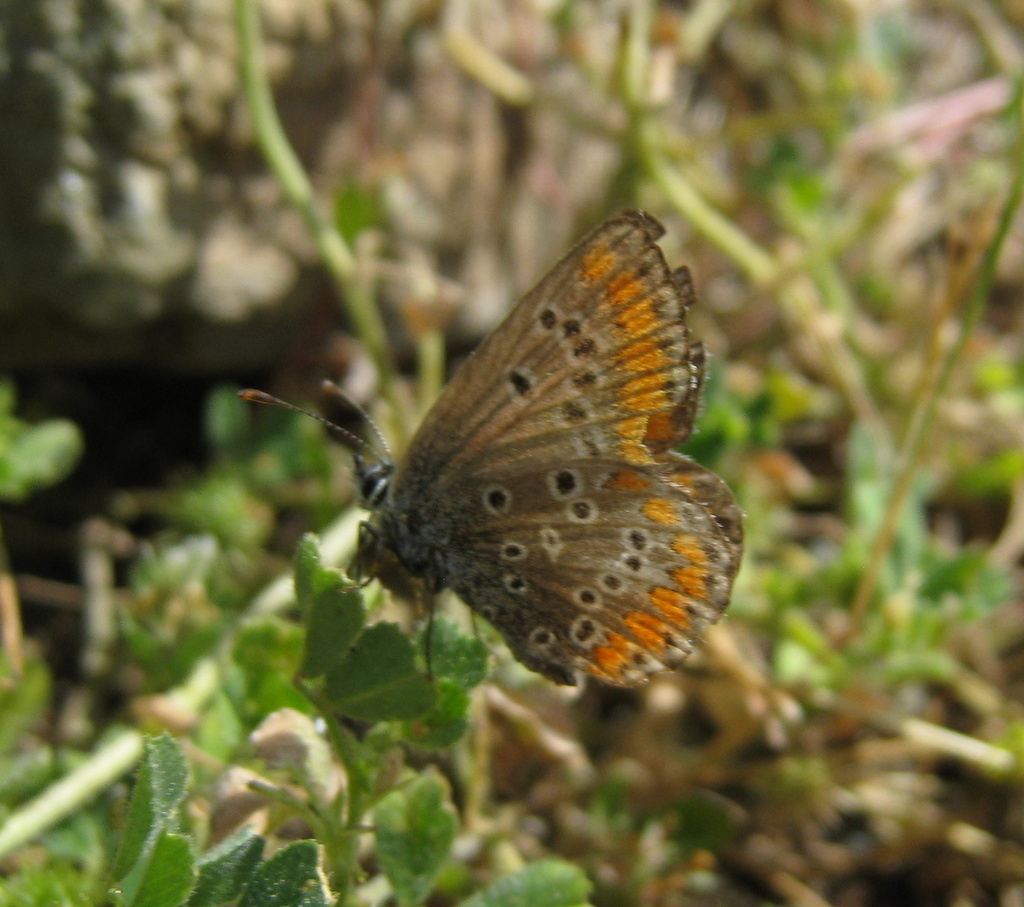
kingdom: Animalia
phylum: Arthropoda
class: Insecta
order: Lepidoptera
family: Lycaenidae
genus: Aricia
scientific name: Aricia agestis
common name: Brown argus
